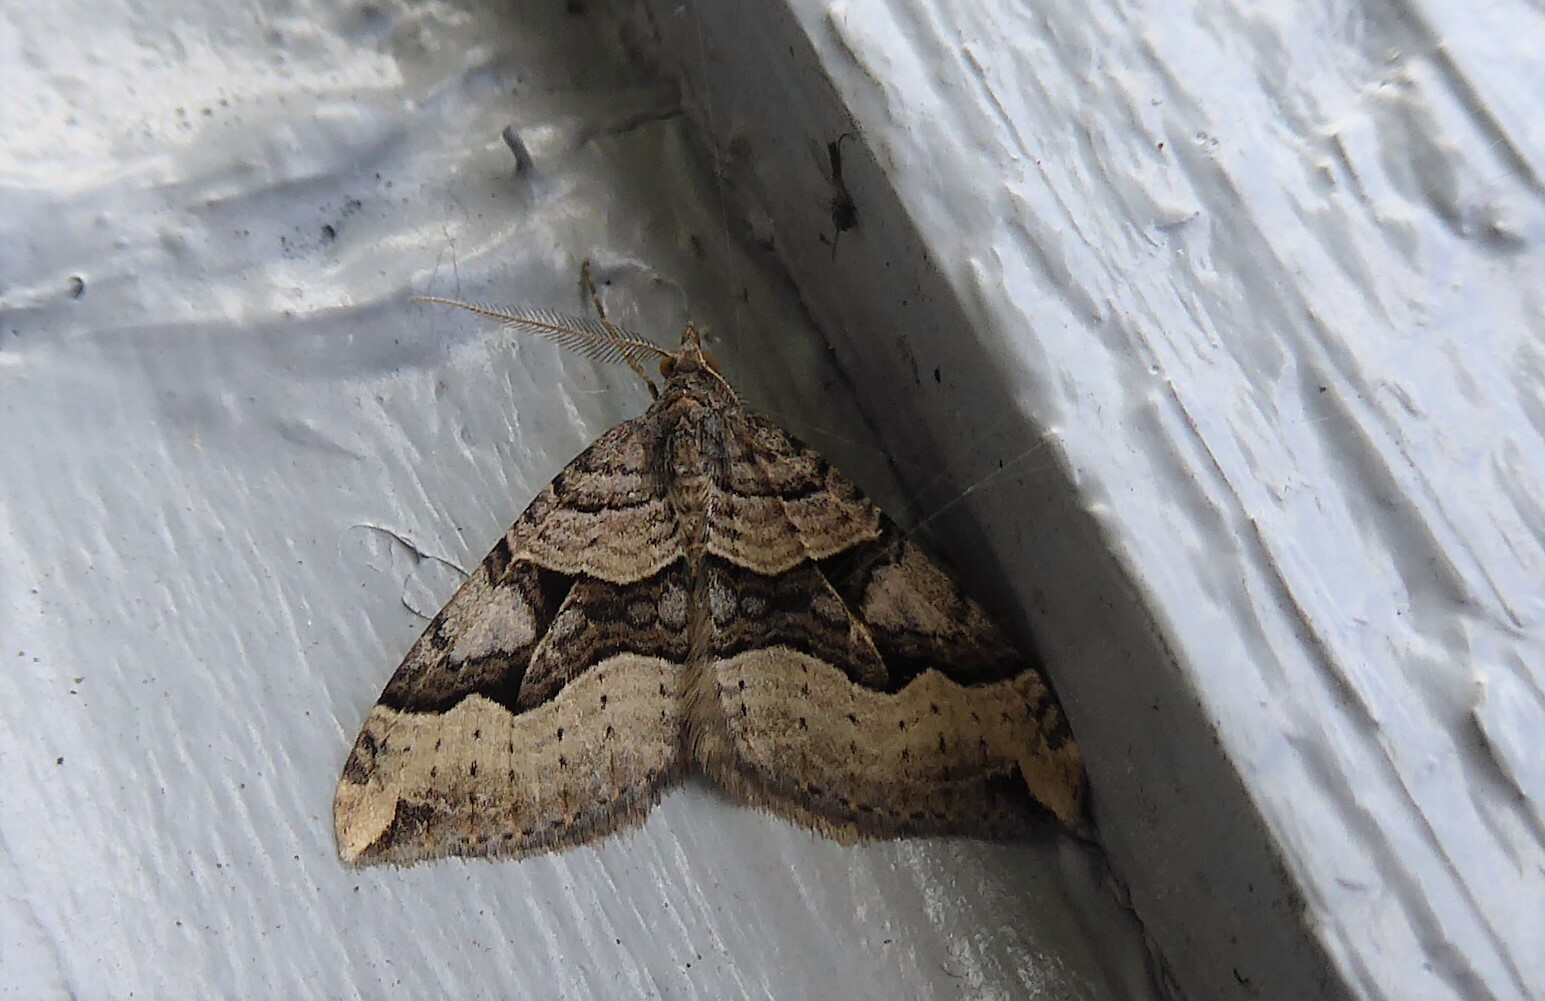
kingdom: Animalia
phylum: Arthropoda
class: Insecta
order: Lepidoptera
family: Geometridae
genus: Xanthorhoe
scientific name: Xanthorhoe semifissata
